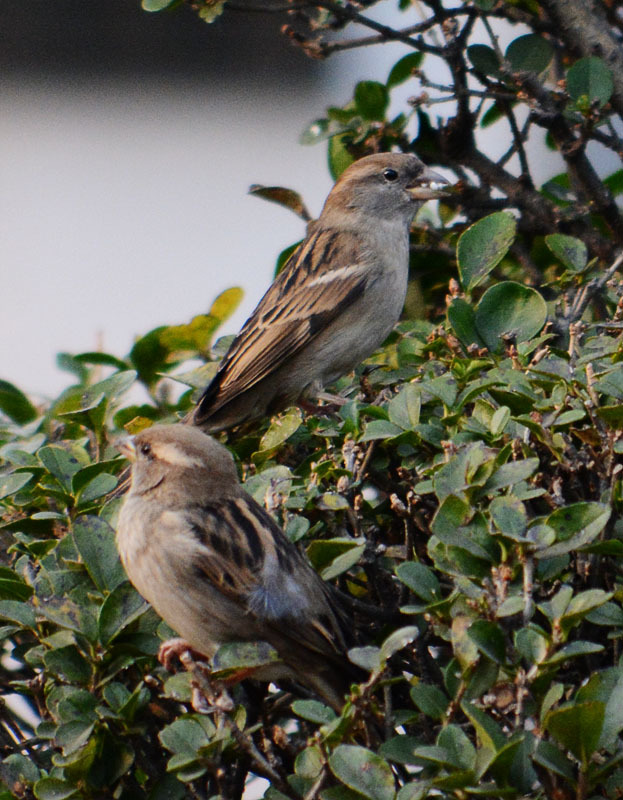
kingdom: Animalia
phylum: Chordata
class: Aves
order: Passeriformes
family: Passeridae
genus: Passer
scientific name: Passer domesticus
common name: House sparrow
